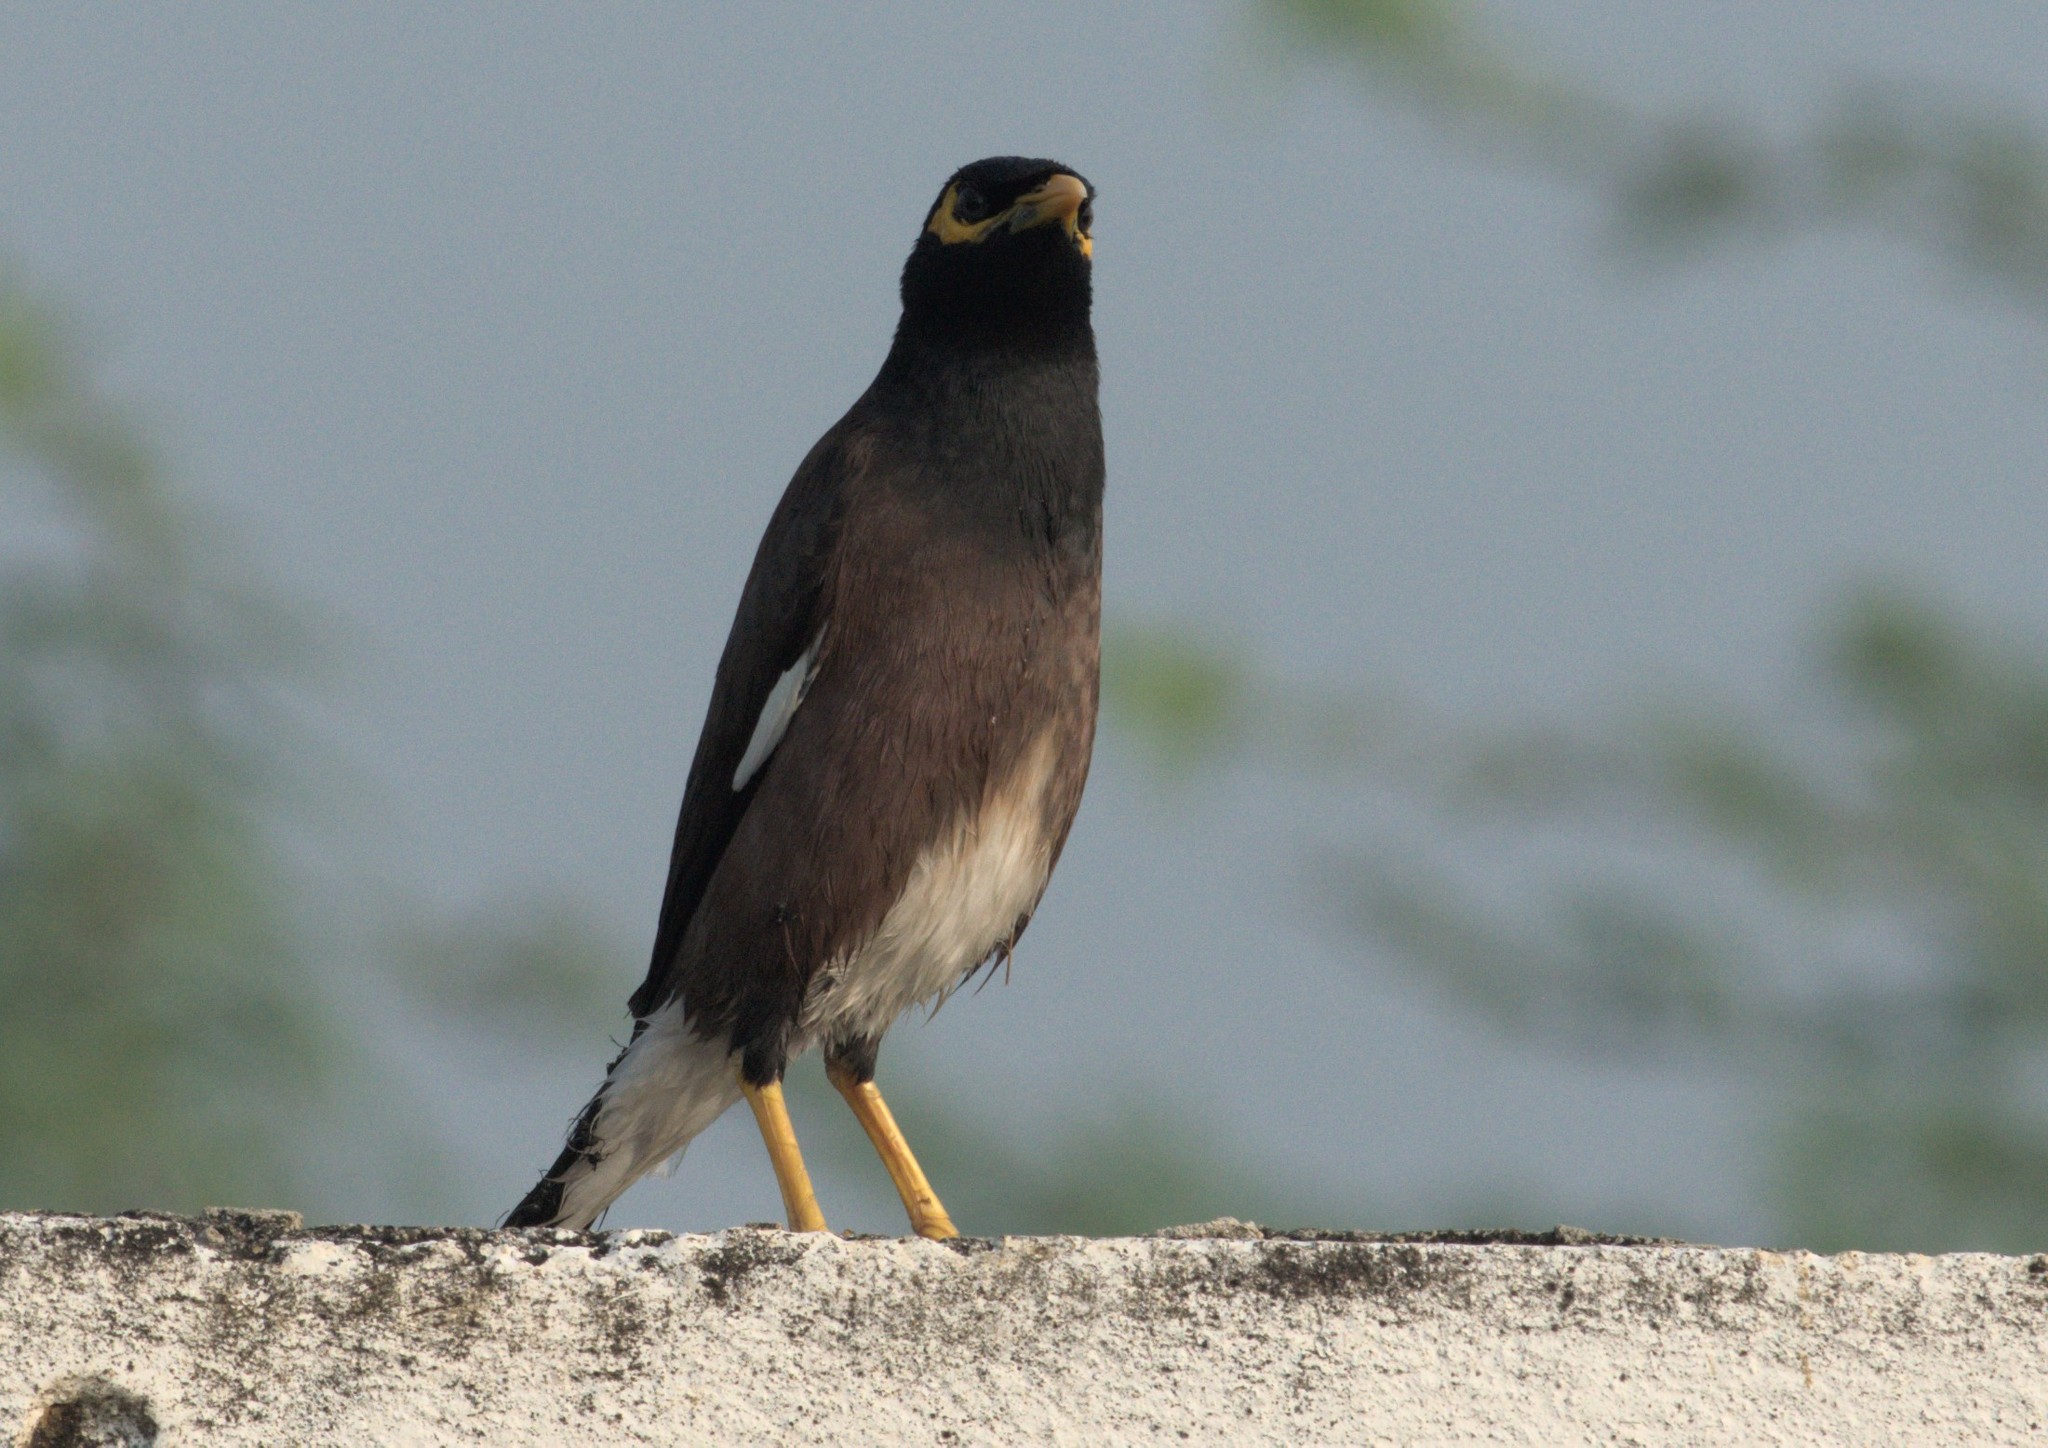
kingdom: Animalia
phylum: Chordata
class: Aves
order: Passeriformes
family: Sturnidae
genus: Acridotheres
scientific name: Acridotheres tristis
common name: Common myna
